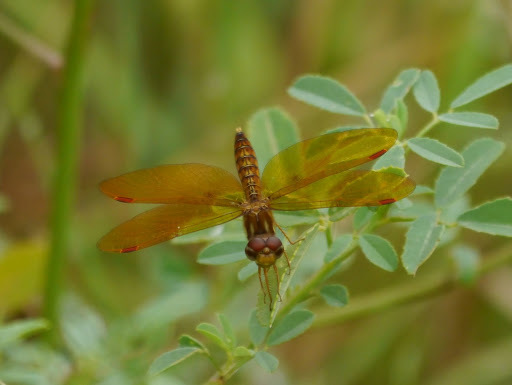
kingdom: Animalia
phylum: Arthropoda
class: Insecta
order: Odonata
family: Libellulidae
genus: Perithemis
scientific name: Perithemis tenera
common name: Eastern amberwing
